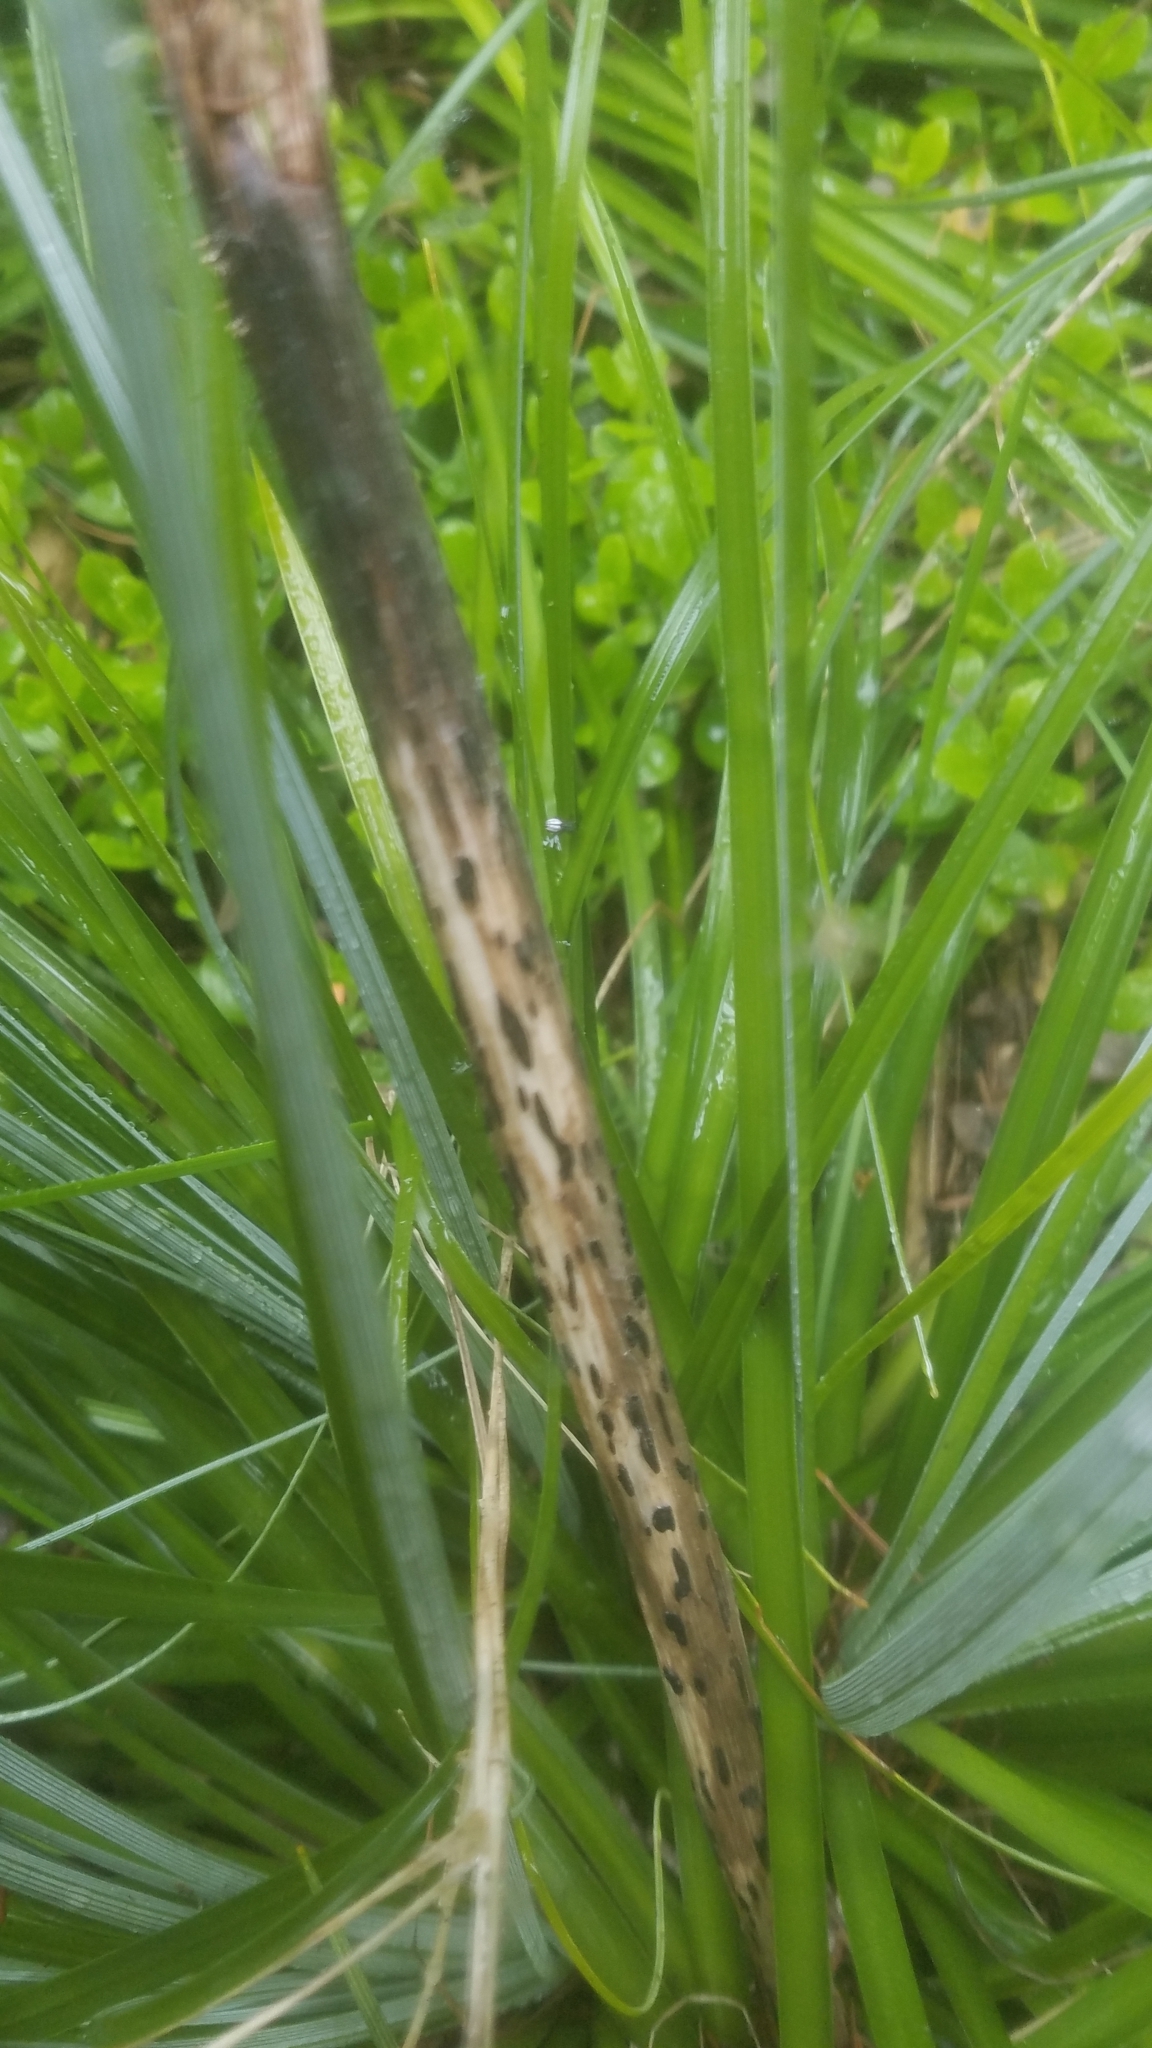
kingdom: Plantae
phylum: Tracheophyta
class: Liliopsida
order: Liliales
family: Melanthiaceae
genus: Xerophyllum
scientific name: Xerophyllum tenax
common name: Bear-grass
